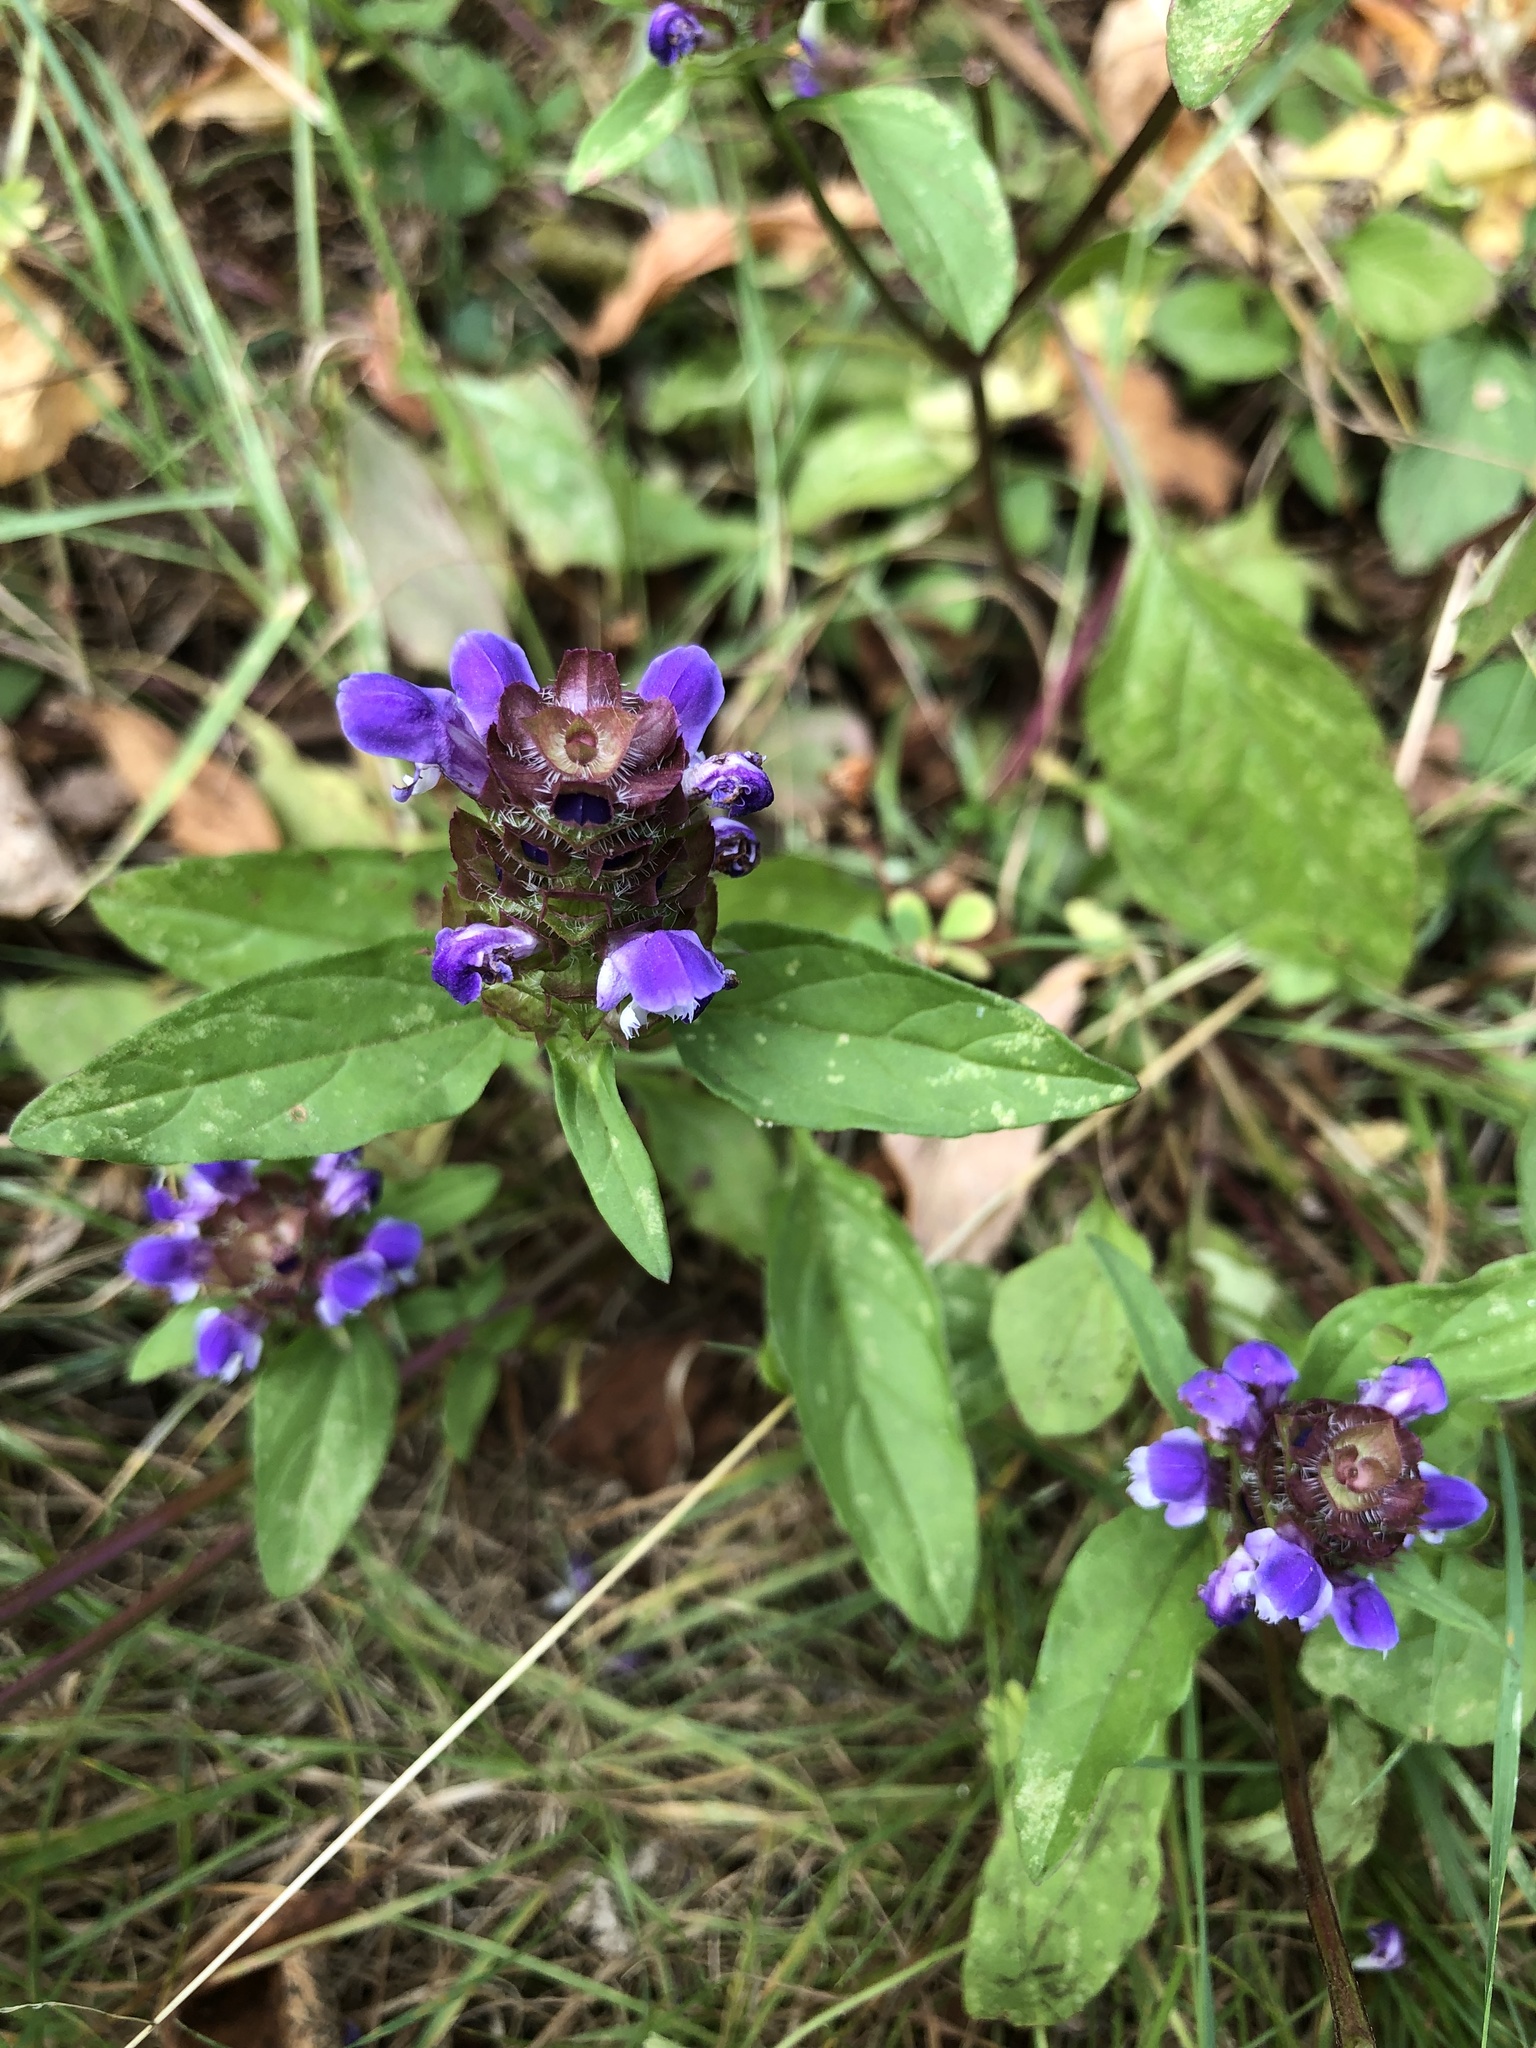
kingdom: Plantae
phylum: Tracheophyta
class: Magnoliopsida
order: Lamiales
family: Lamiaceae
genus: Prunella
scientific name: Prunella vulgaris
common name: Heal-all
